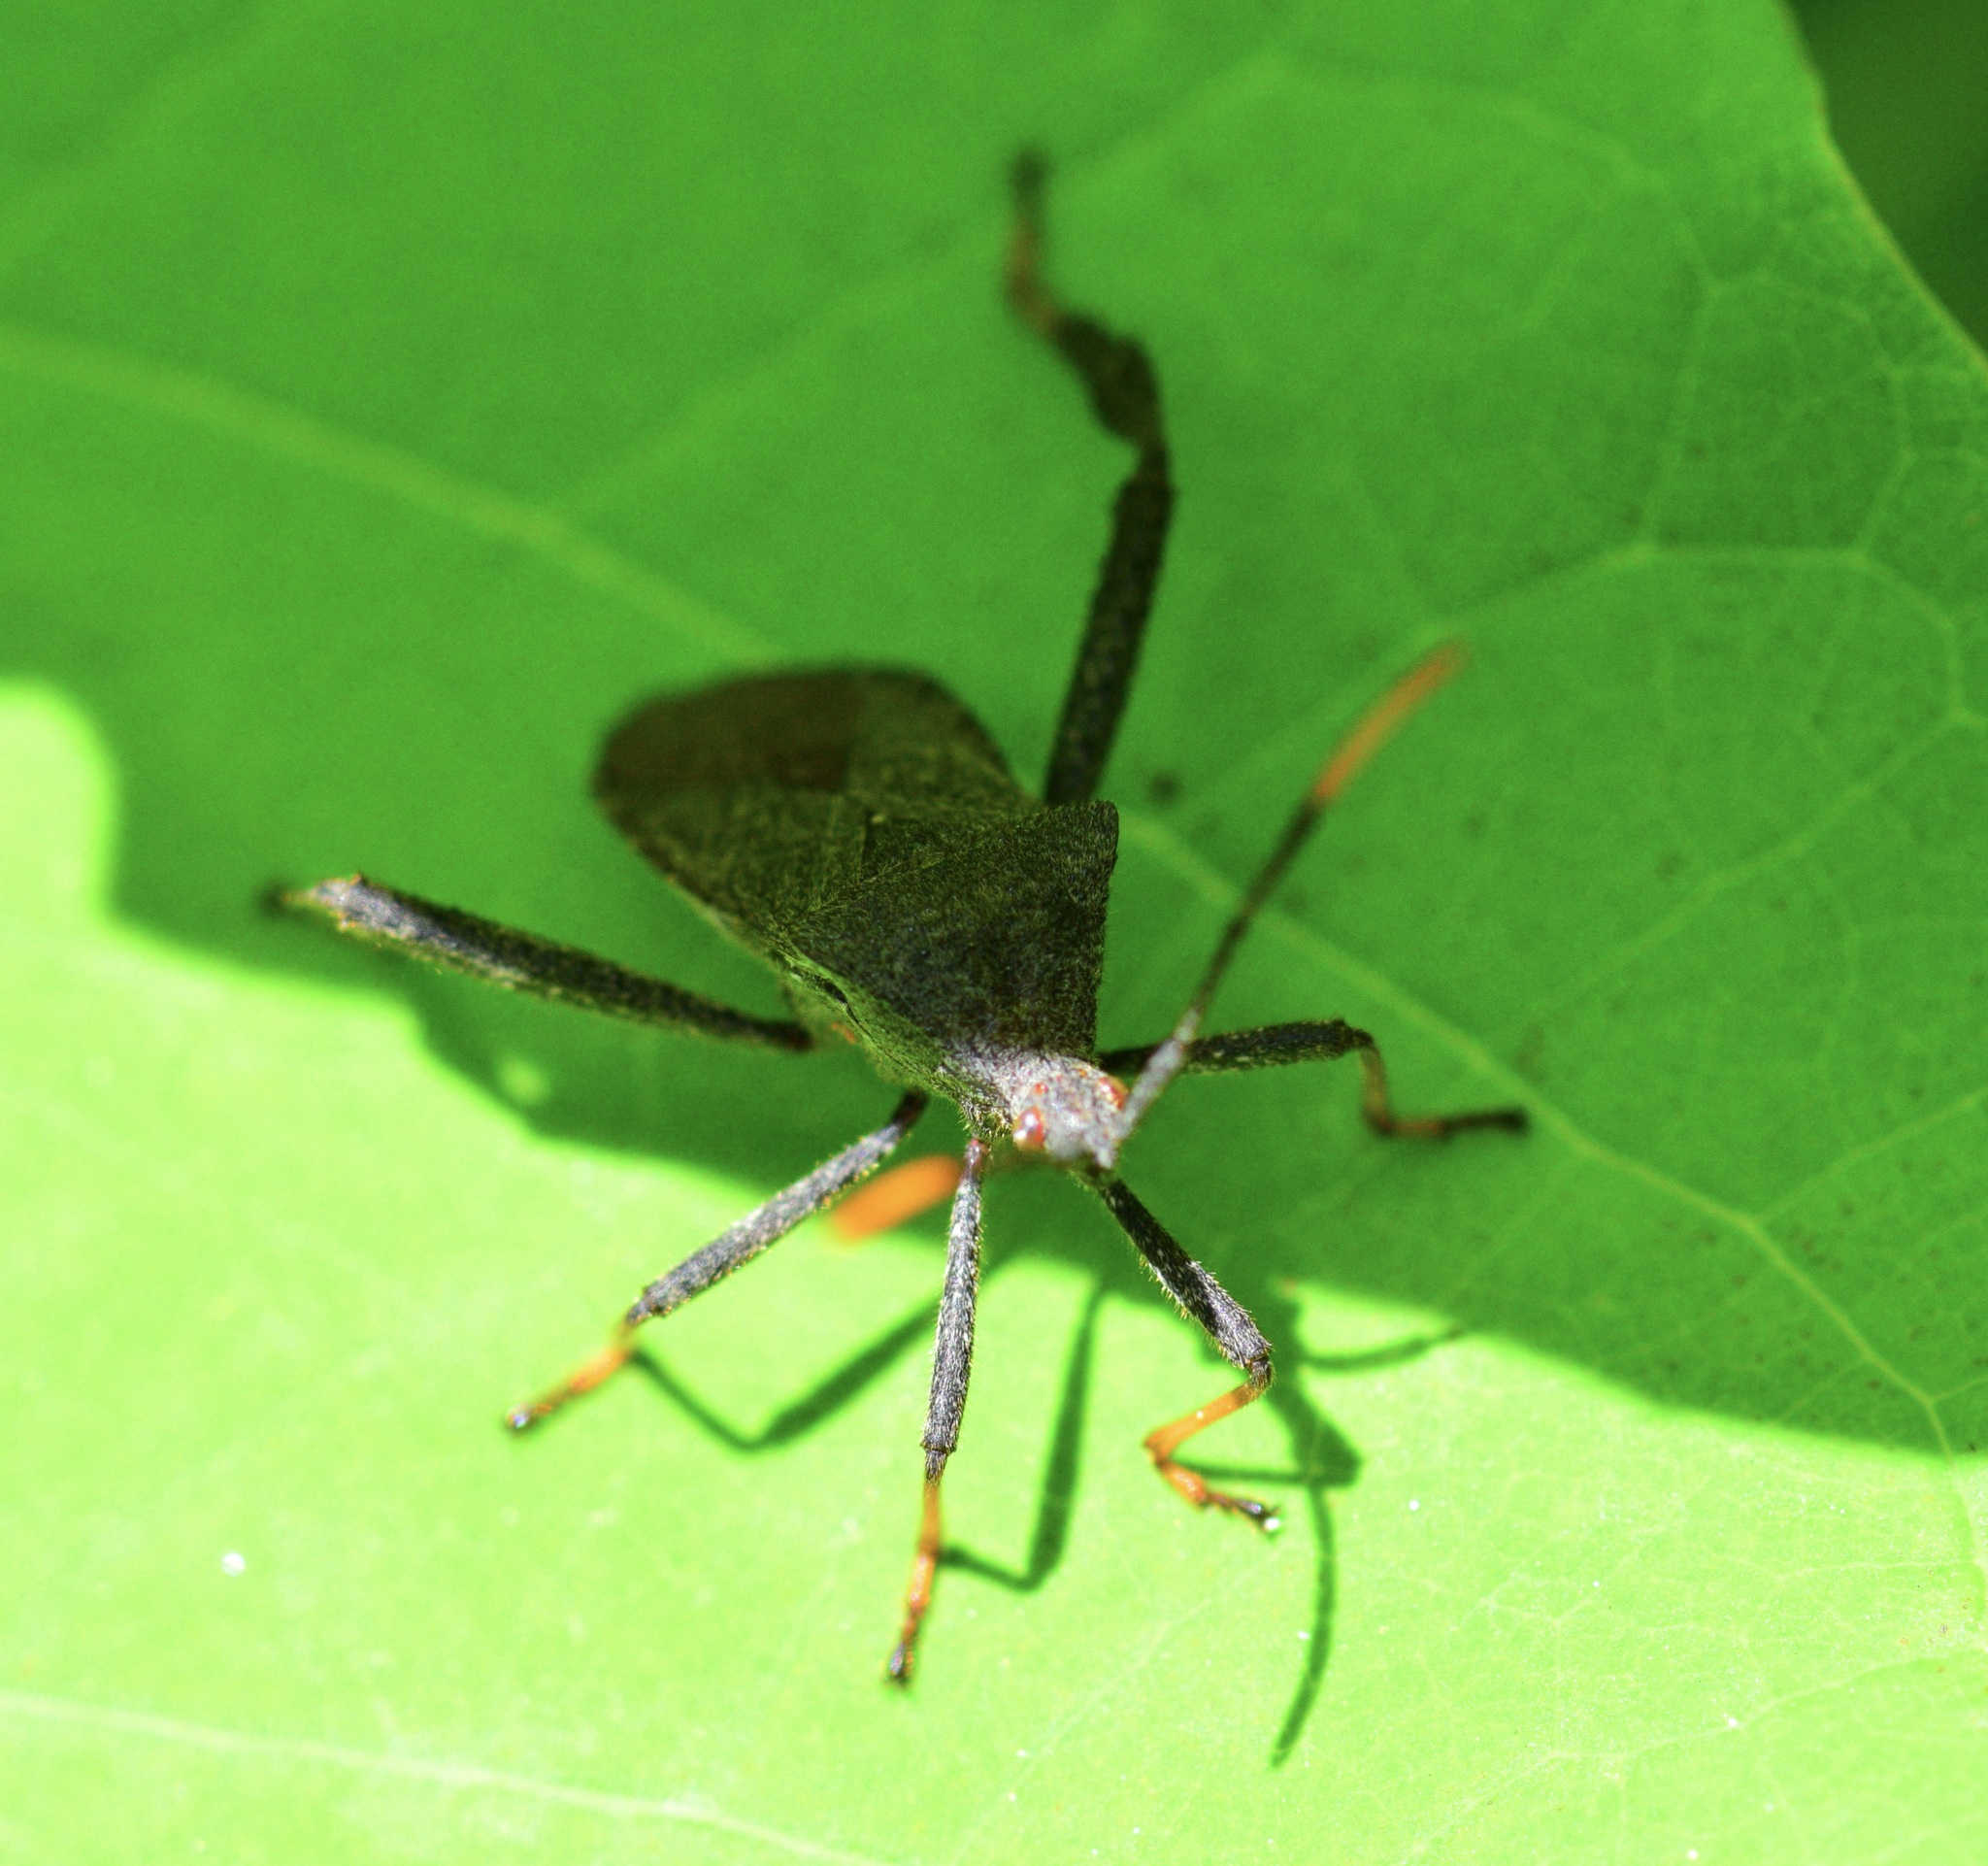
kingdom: Animalia
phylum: Arthropoda
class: Insecta
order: Hemiptera
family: Coreidae
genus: Acanthocephala
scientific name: Acanthocephala terminalis
